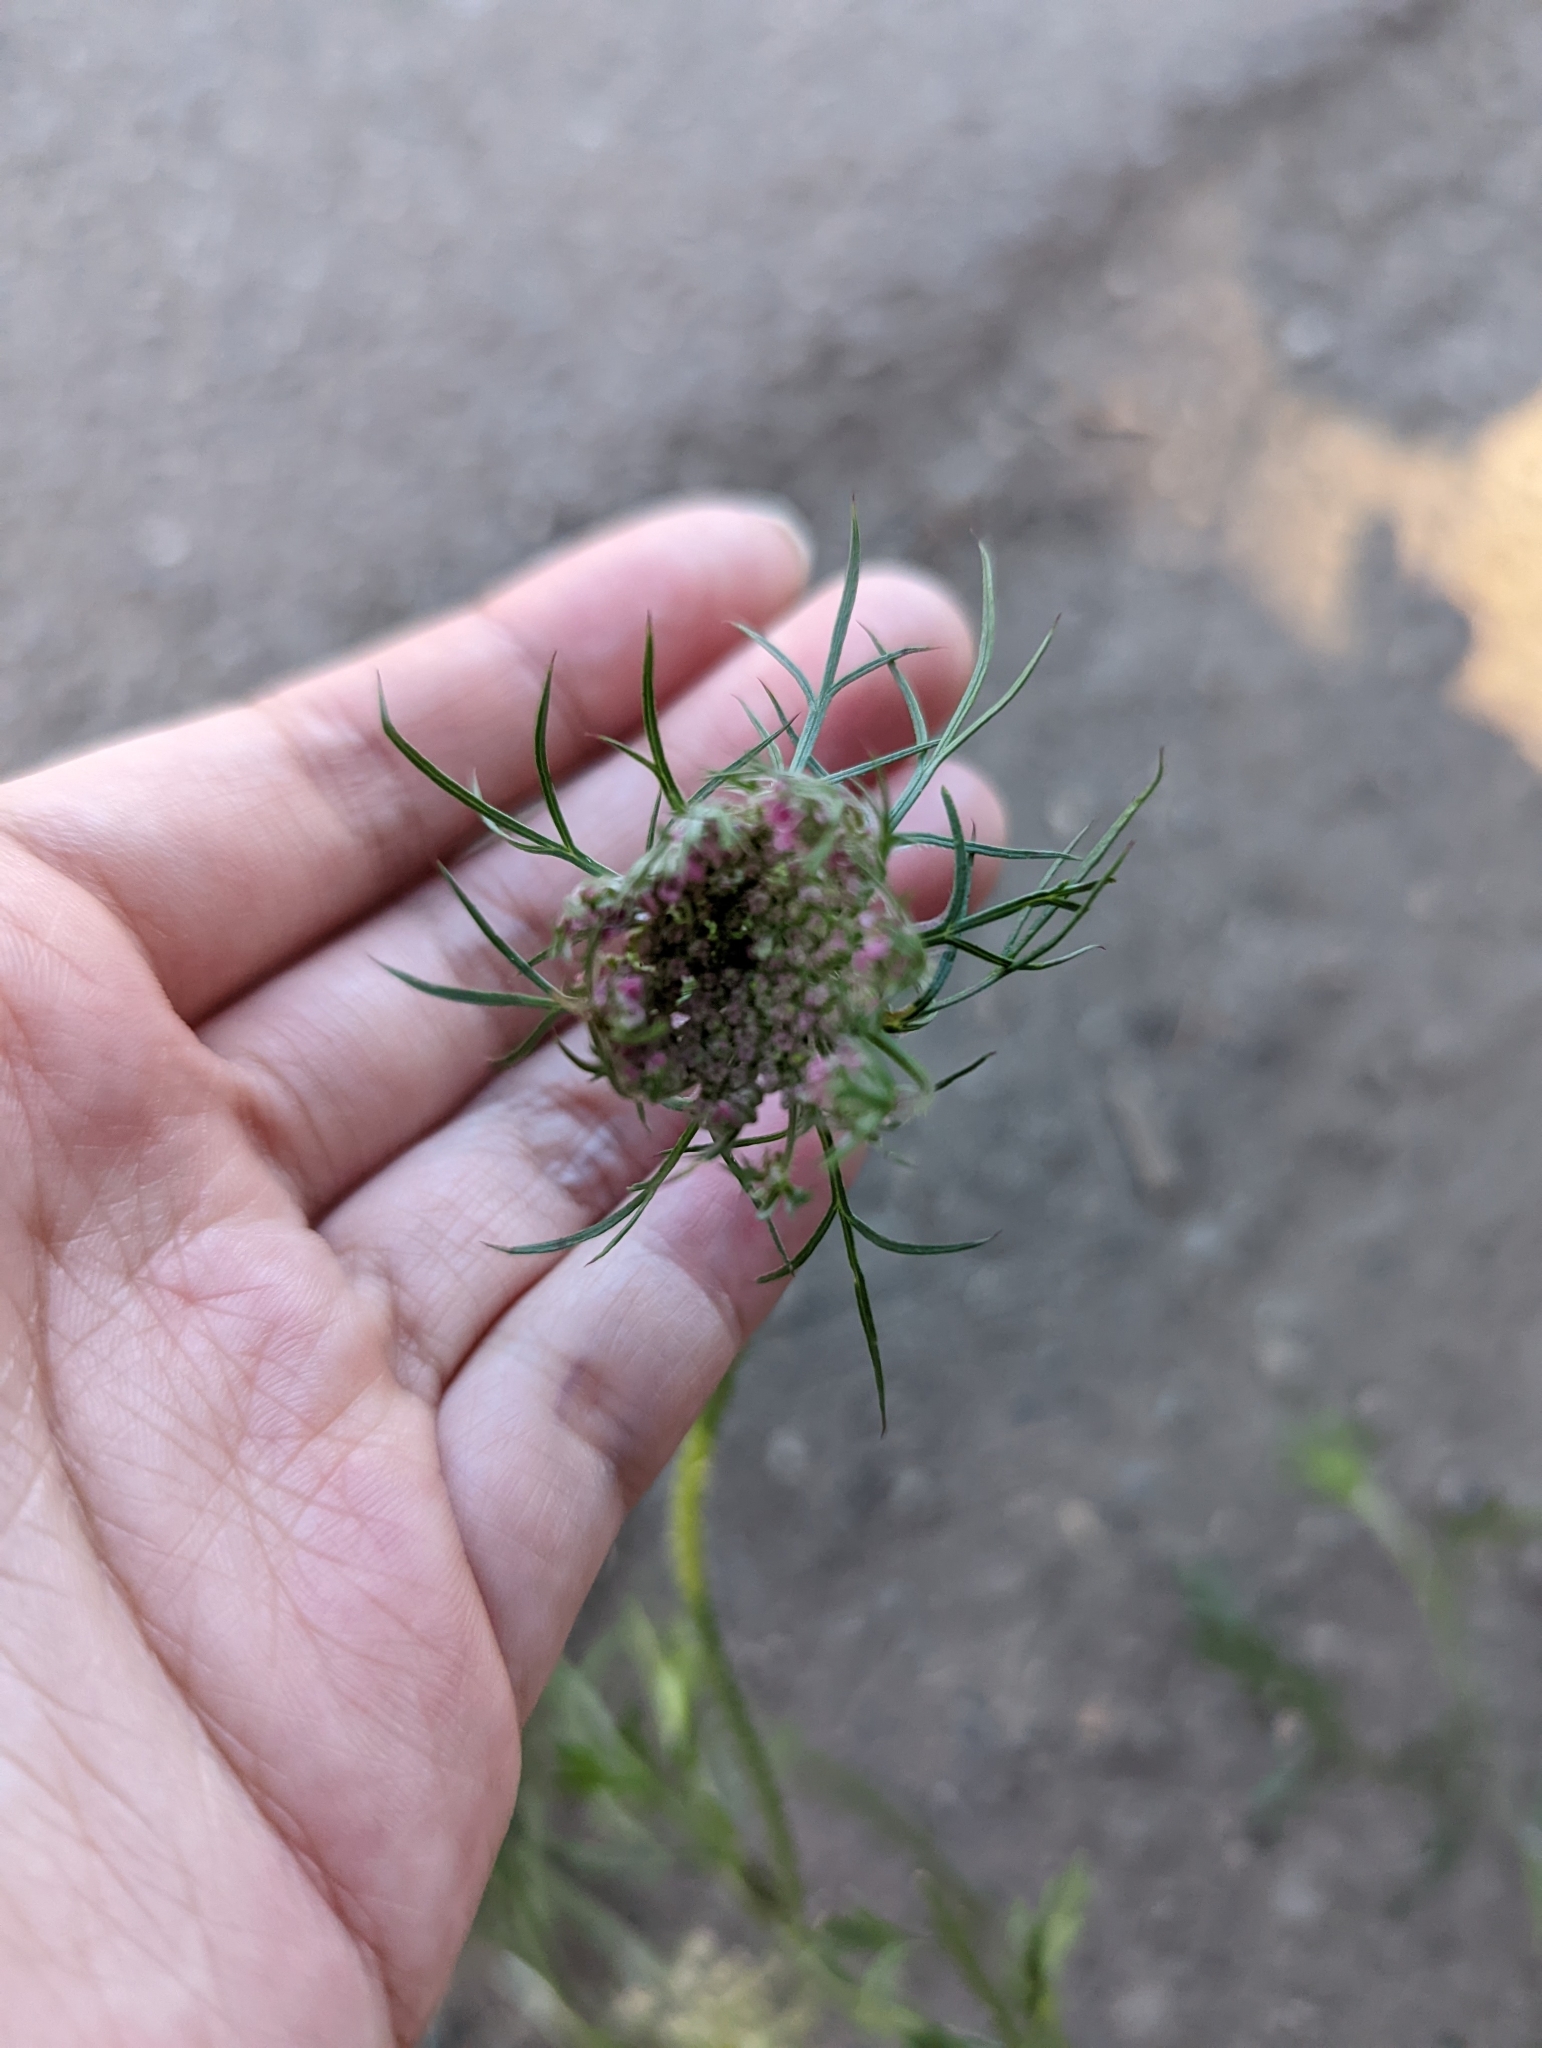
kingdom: Plantae
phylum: Tracheophyta
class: Magnoliopsida
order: Apiales
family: Apiaceae
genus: Daucus
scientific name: Daucus carota
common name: Wild carrot
